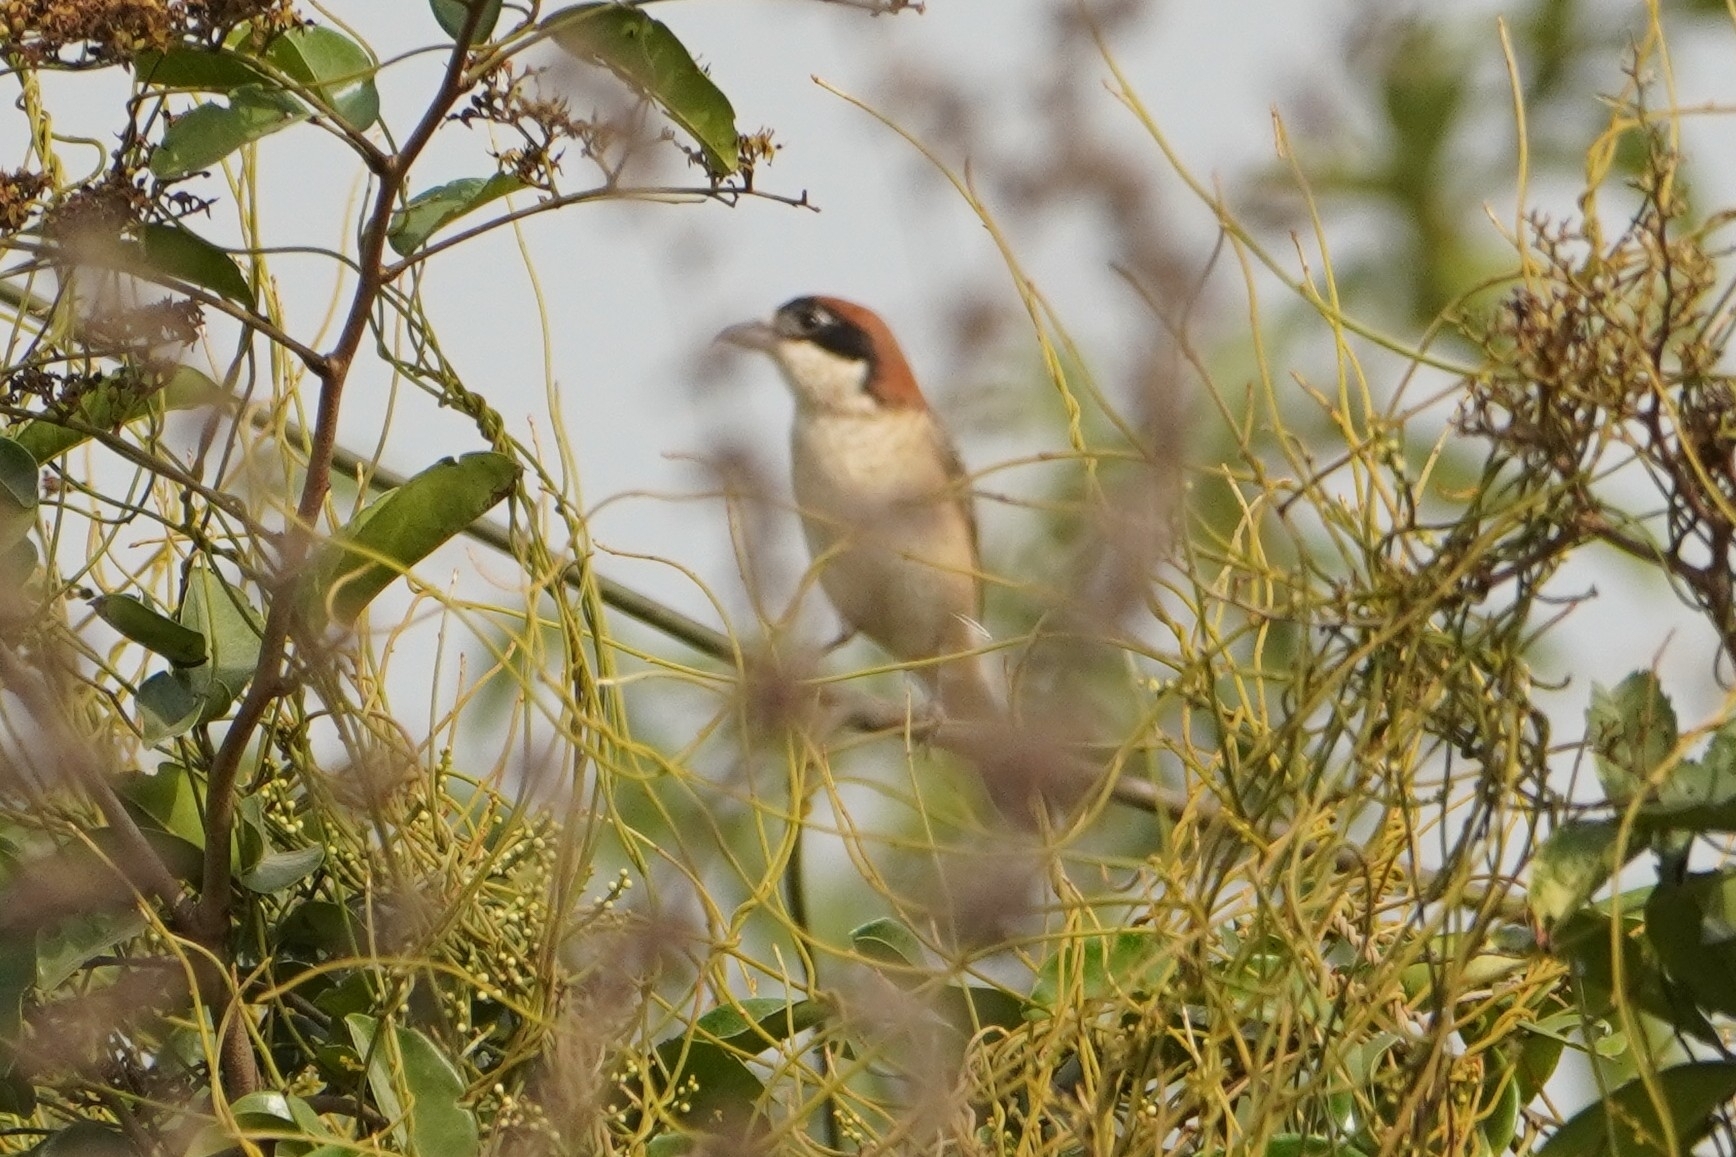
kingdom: Animalia
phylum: Chordata
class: Aves
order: Passeriformes
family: Laniidae
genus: Lanius
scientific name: Lanius senator
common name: Woodchat shrike
